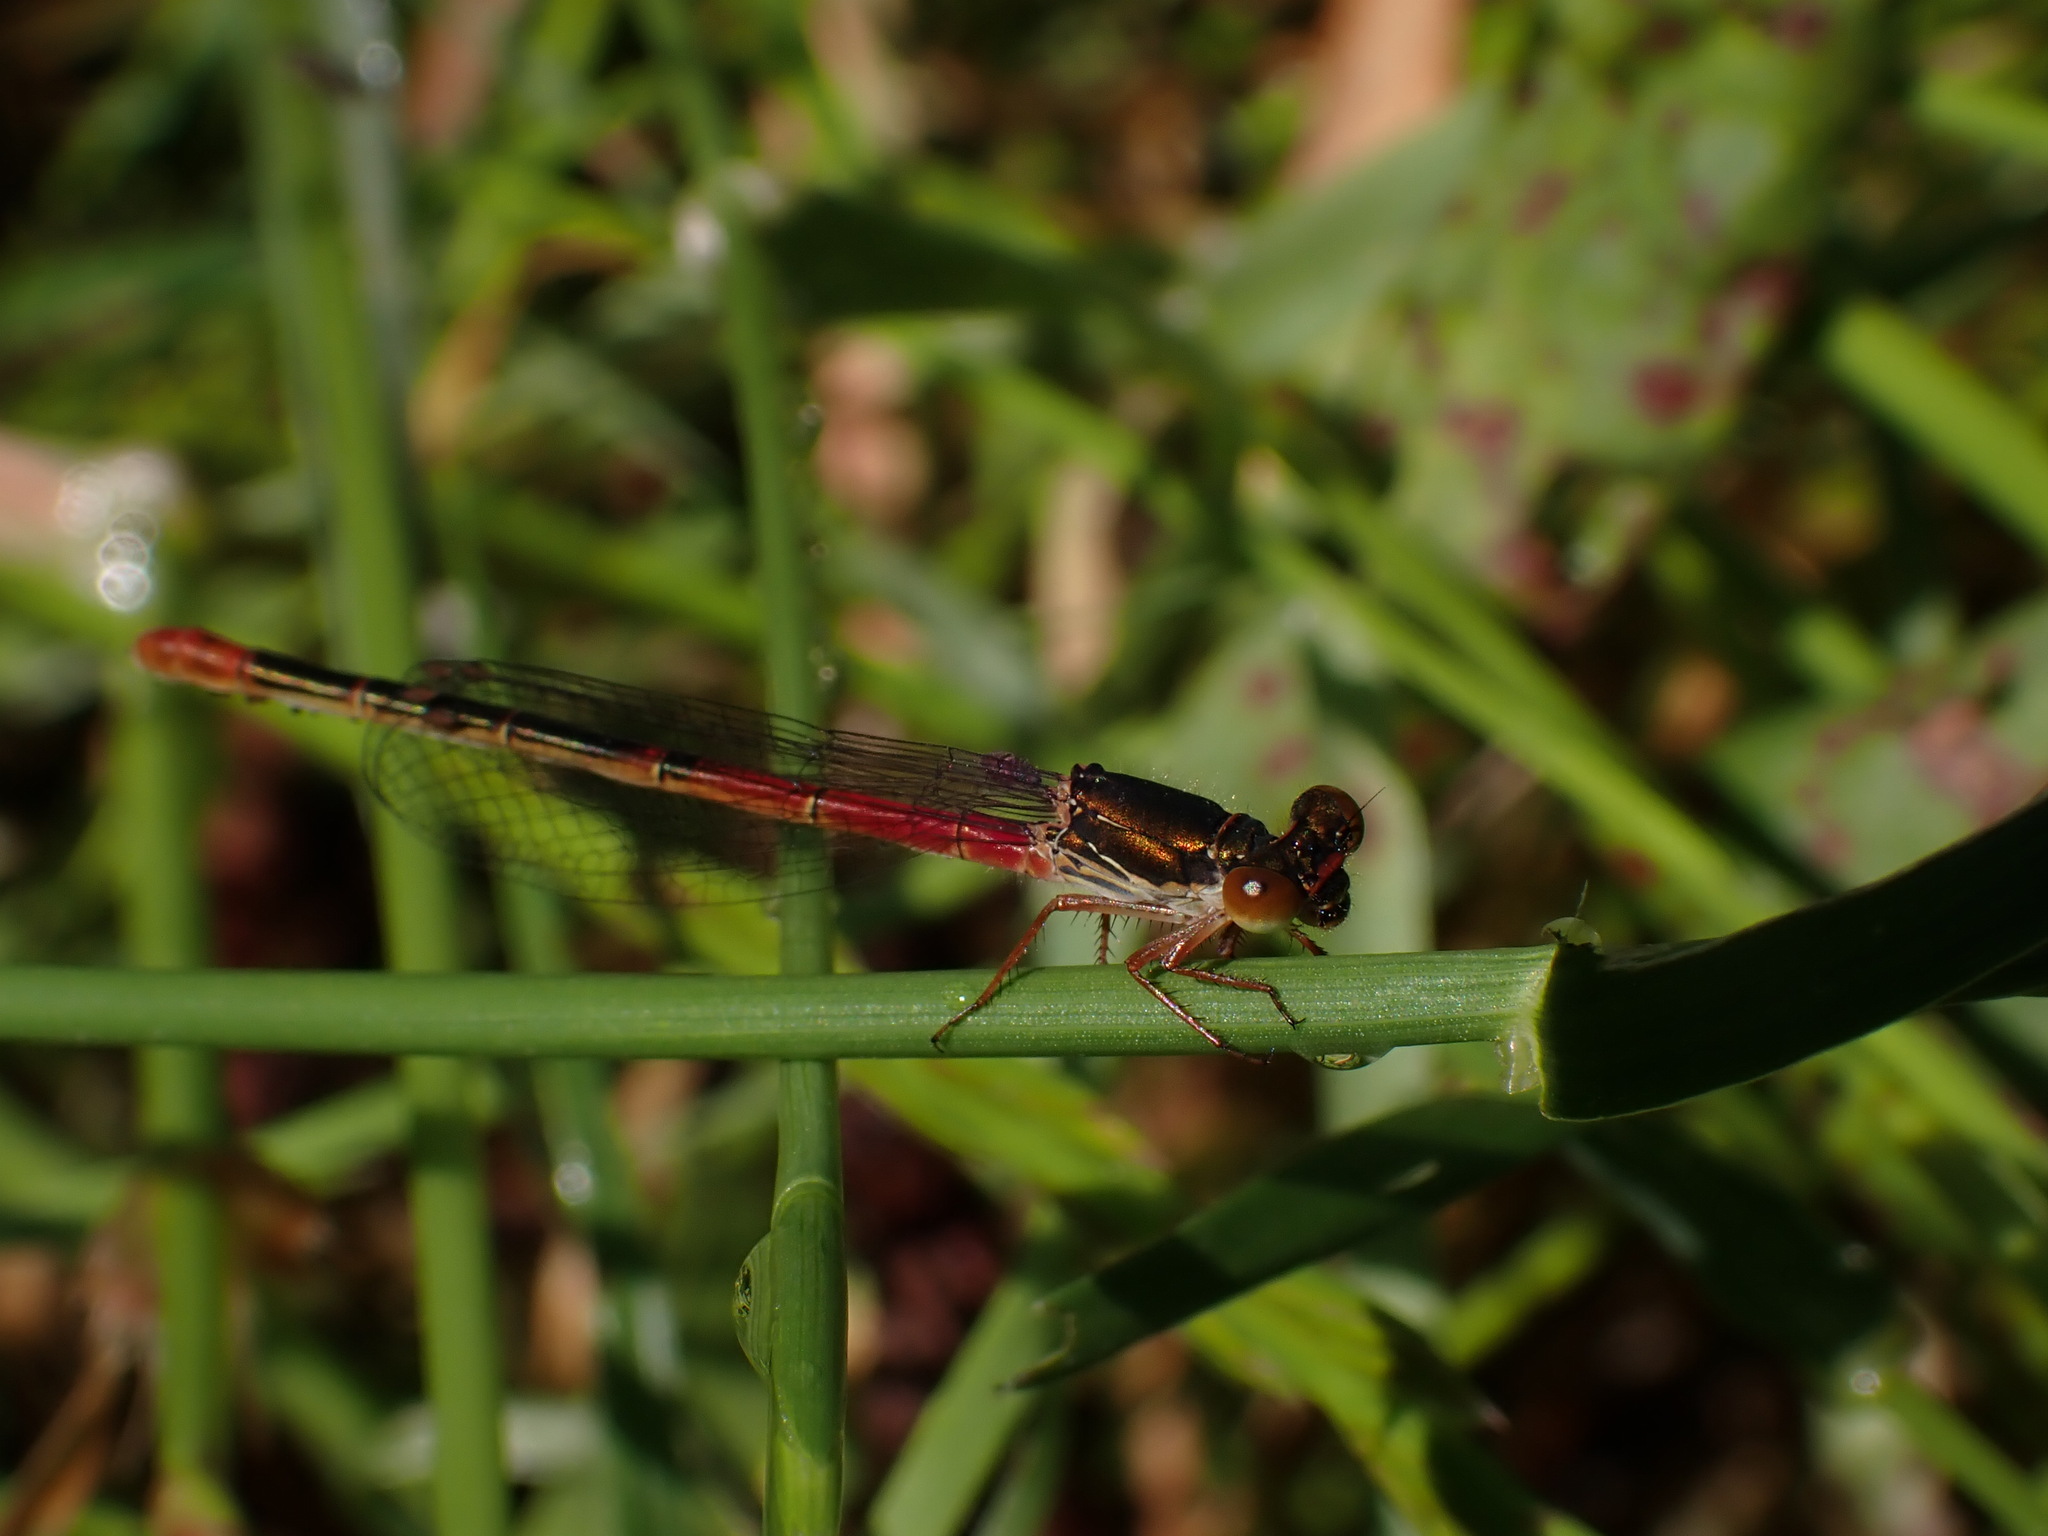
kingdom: Animalia
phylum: Arthropoda
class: Insecta
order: Odonata
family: Coenagrionidae
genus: Ceriagrion
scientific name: Ceriagrion tenellum
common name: Small red damselfly
